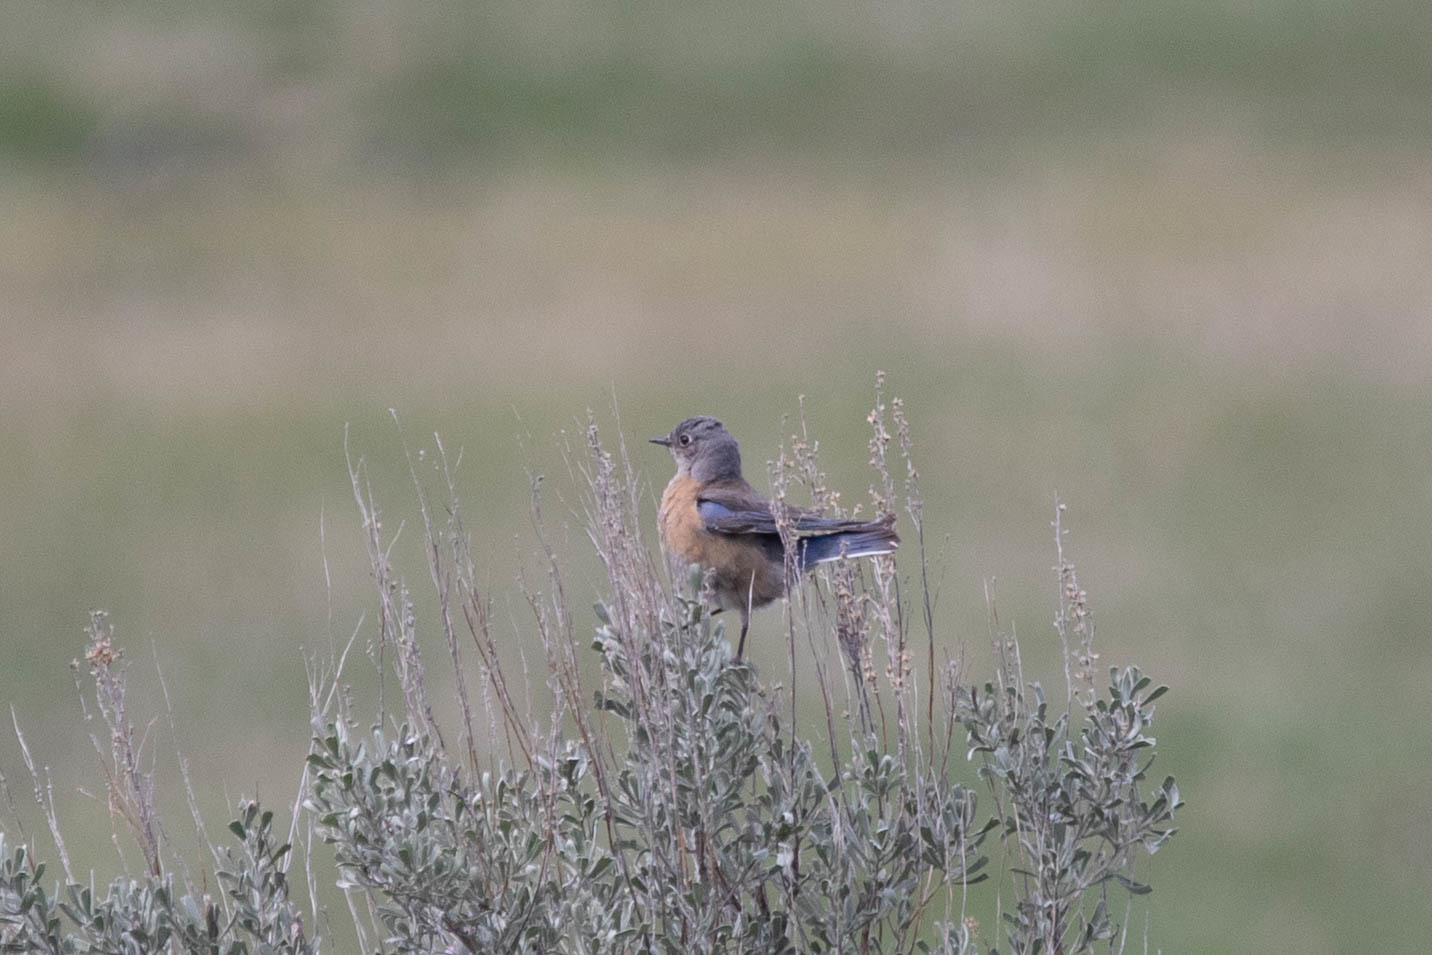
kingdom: Animalia
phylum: Chordata
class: Aves
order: Passeriformes
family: Turdidae
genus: Sialia
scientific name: Sialia mexicana
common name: Western bluebird
